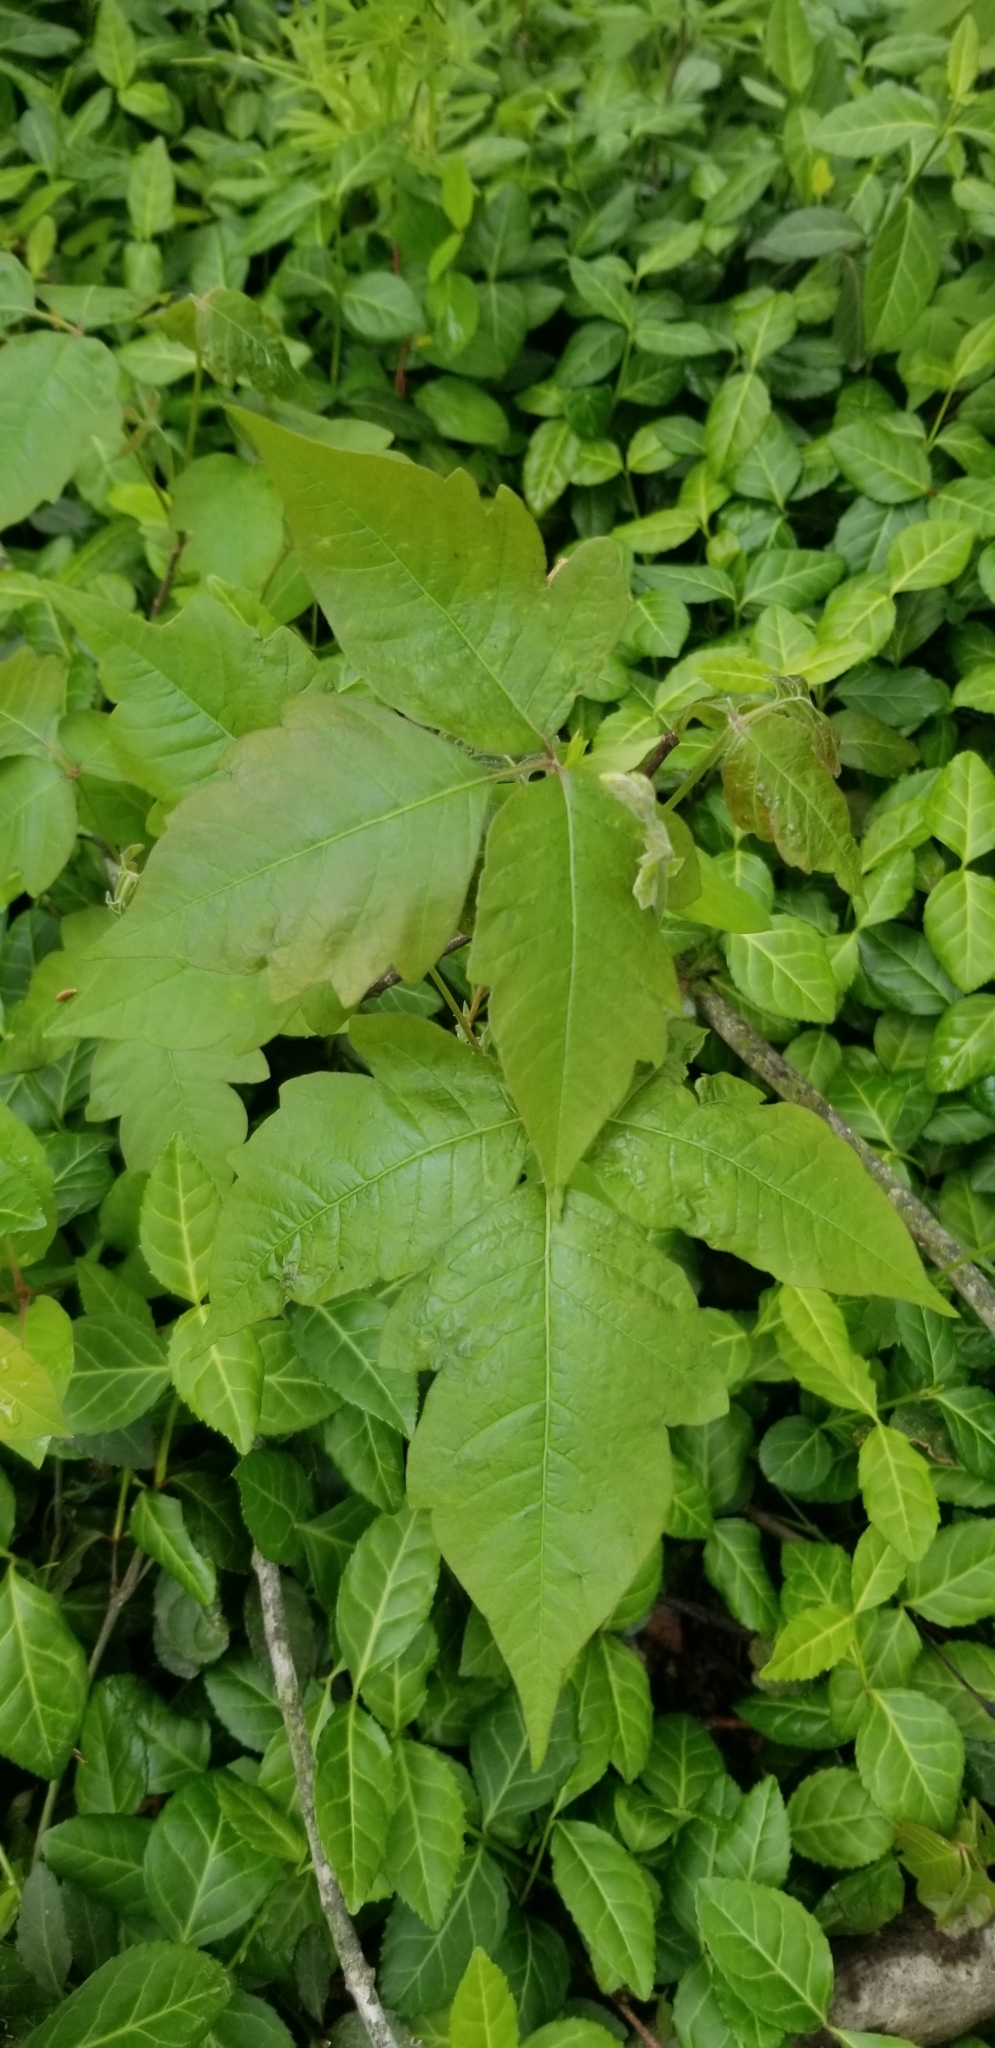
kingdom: Plantae
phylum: Tracheophyta
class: Magnoliopsida
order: Sapindales
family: Anacardiaceae
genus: Toxicodendron
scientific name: Toxicodendron radicans
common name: Poison ivy
